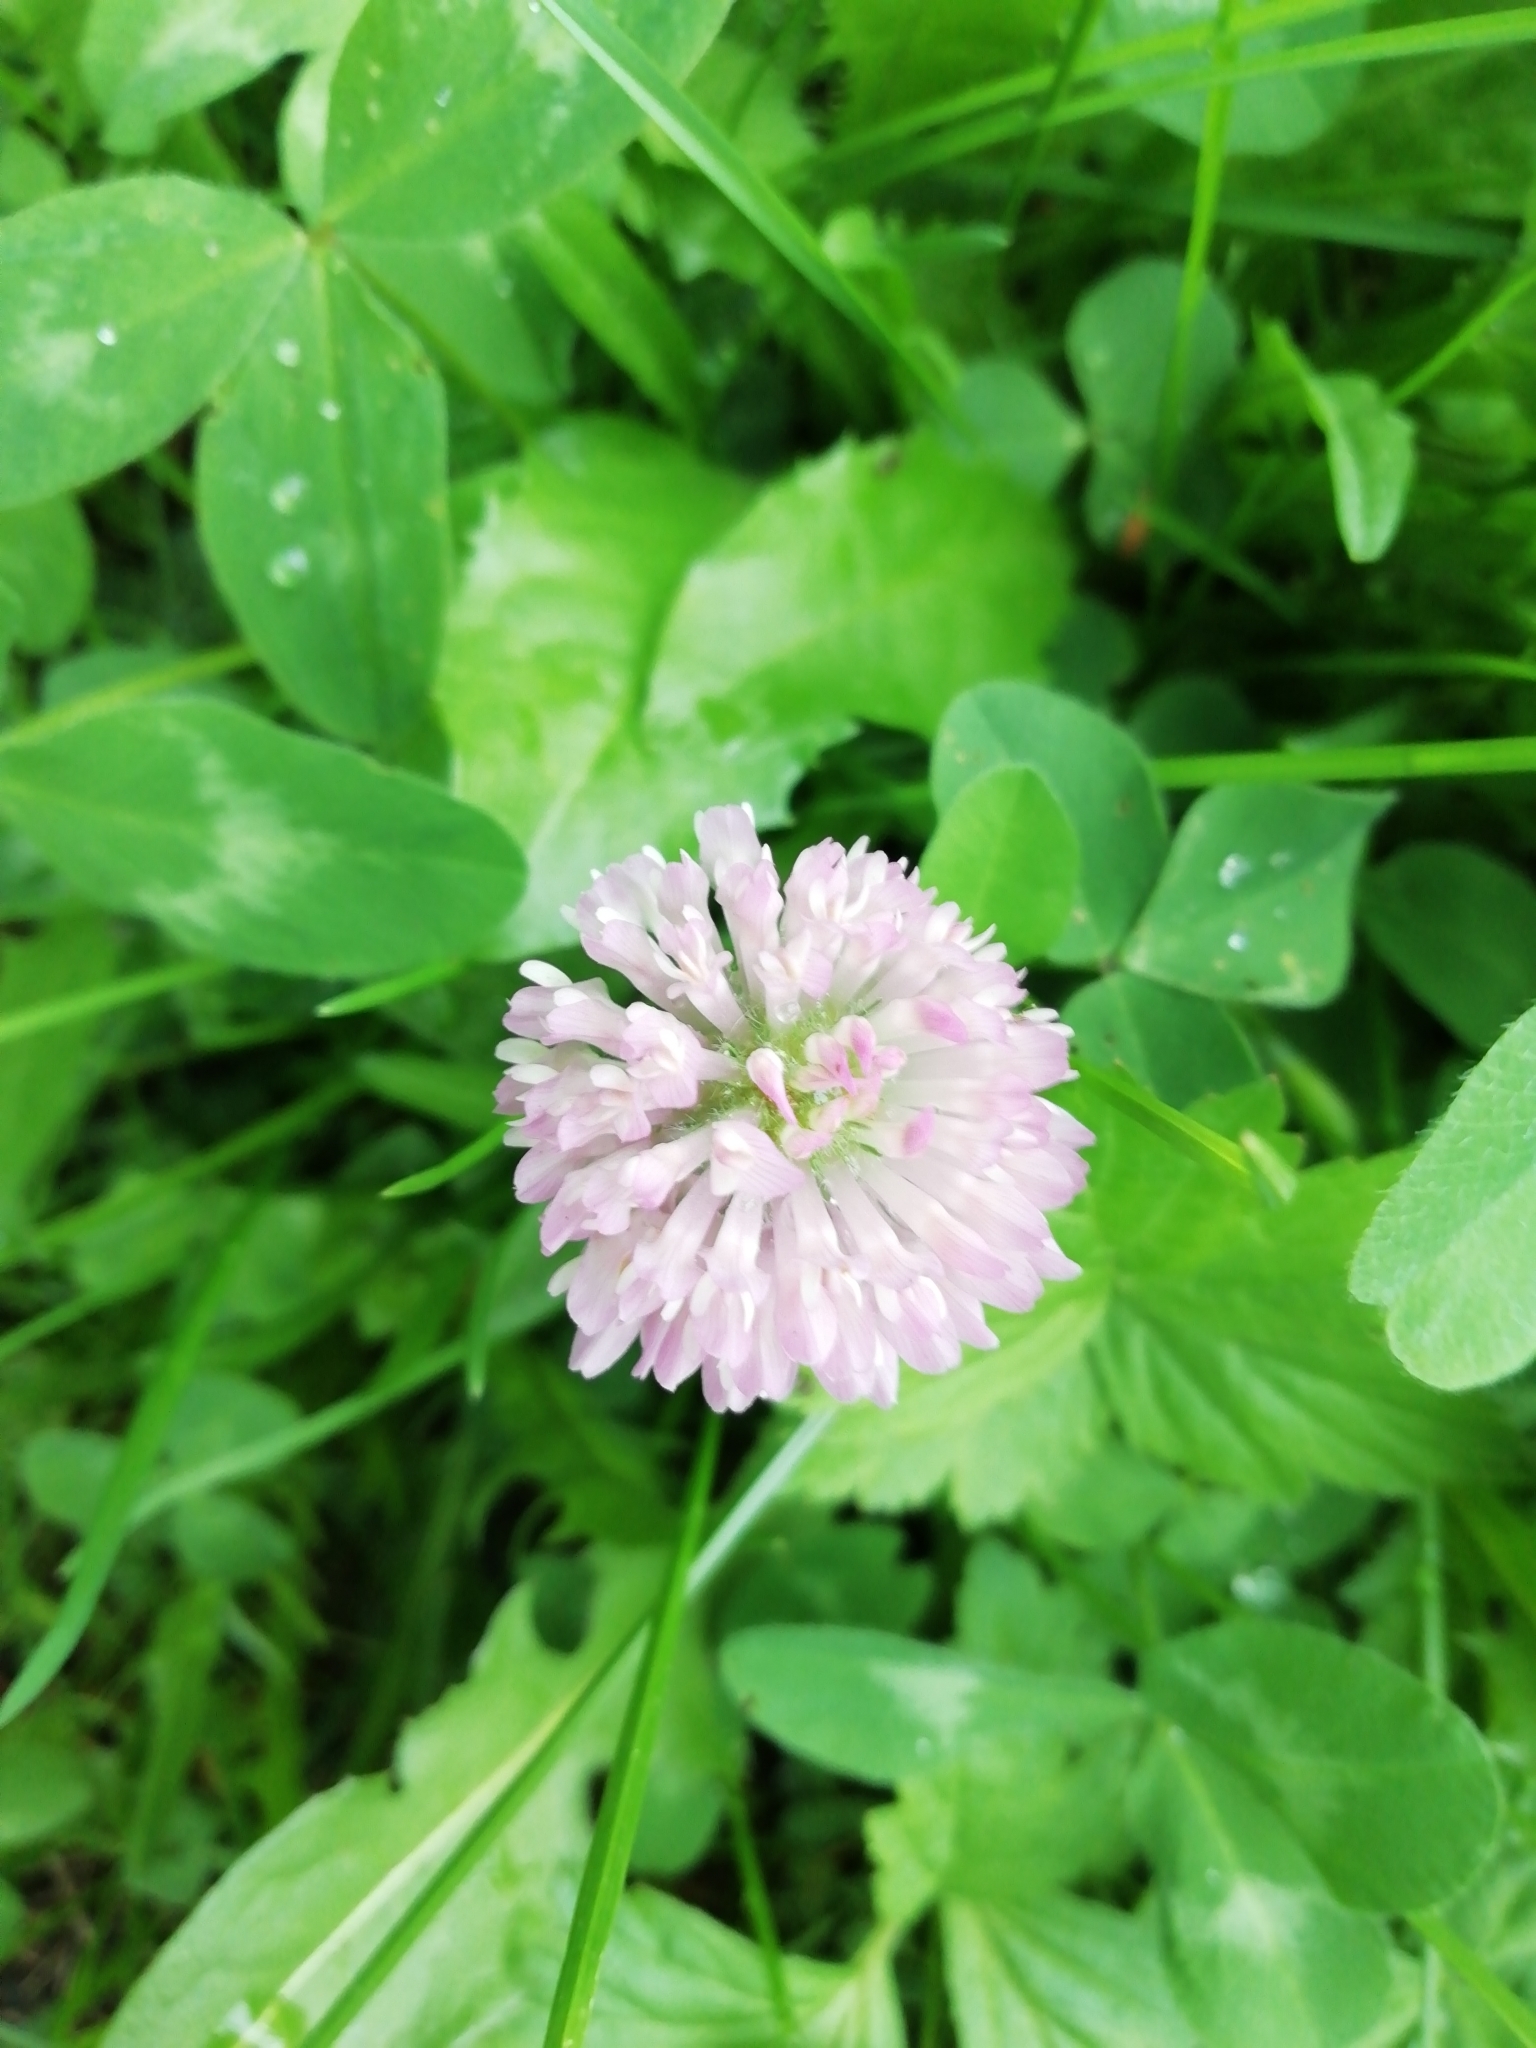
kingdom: Plantae
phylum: Tracheophyta
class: Magnoliopsida
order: Fabales
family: Fabaceae
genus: Trifolium
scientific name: Trifolium pratense
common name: Red clover
